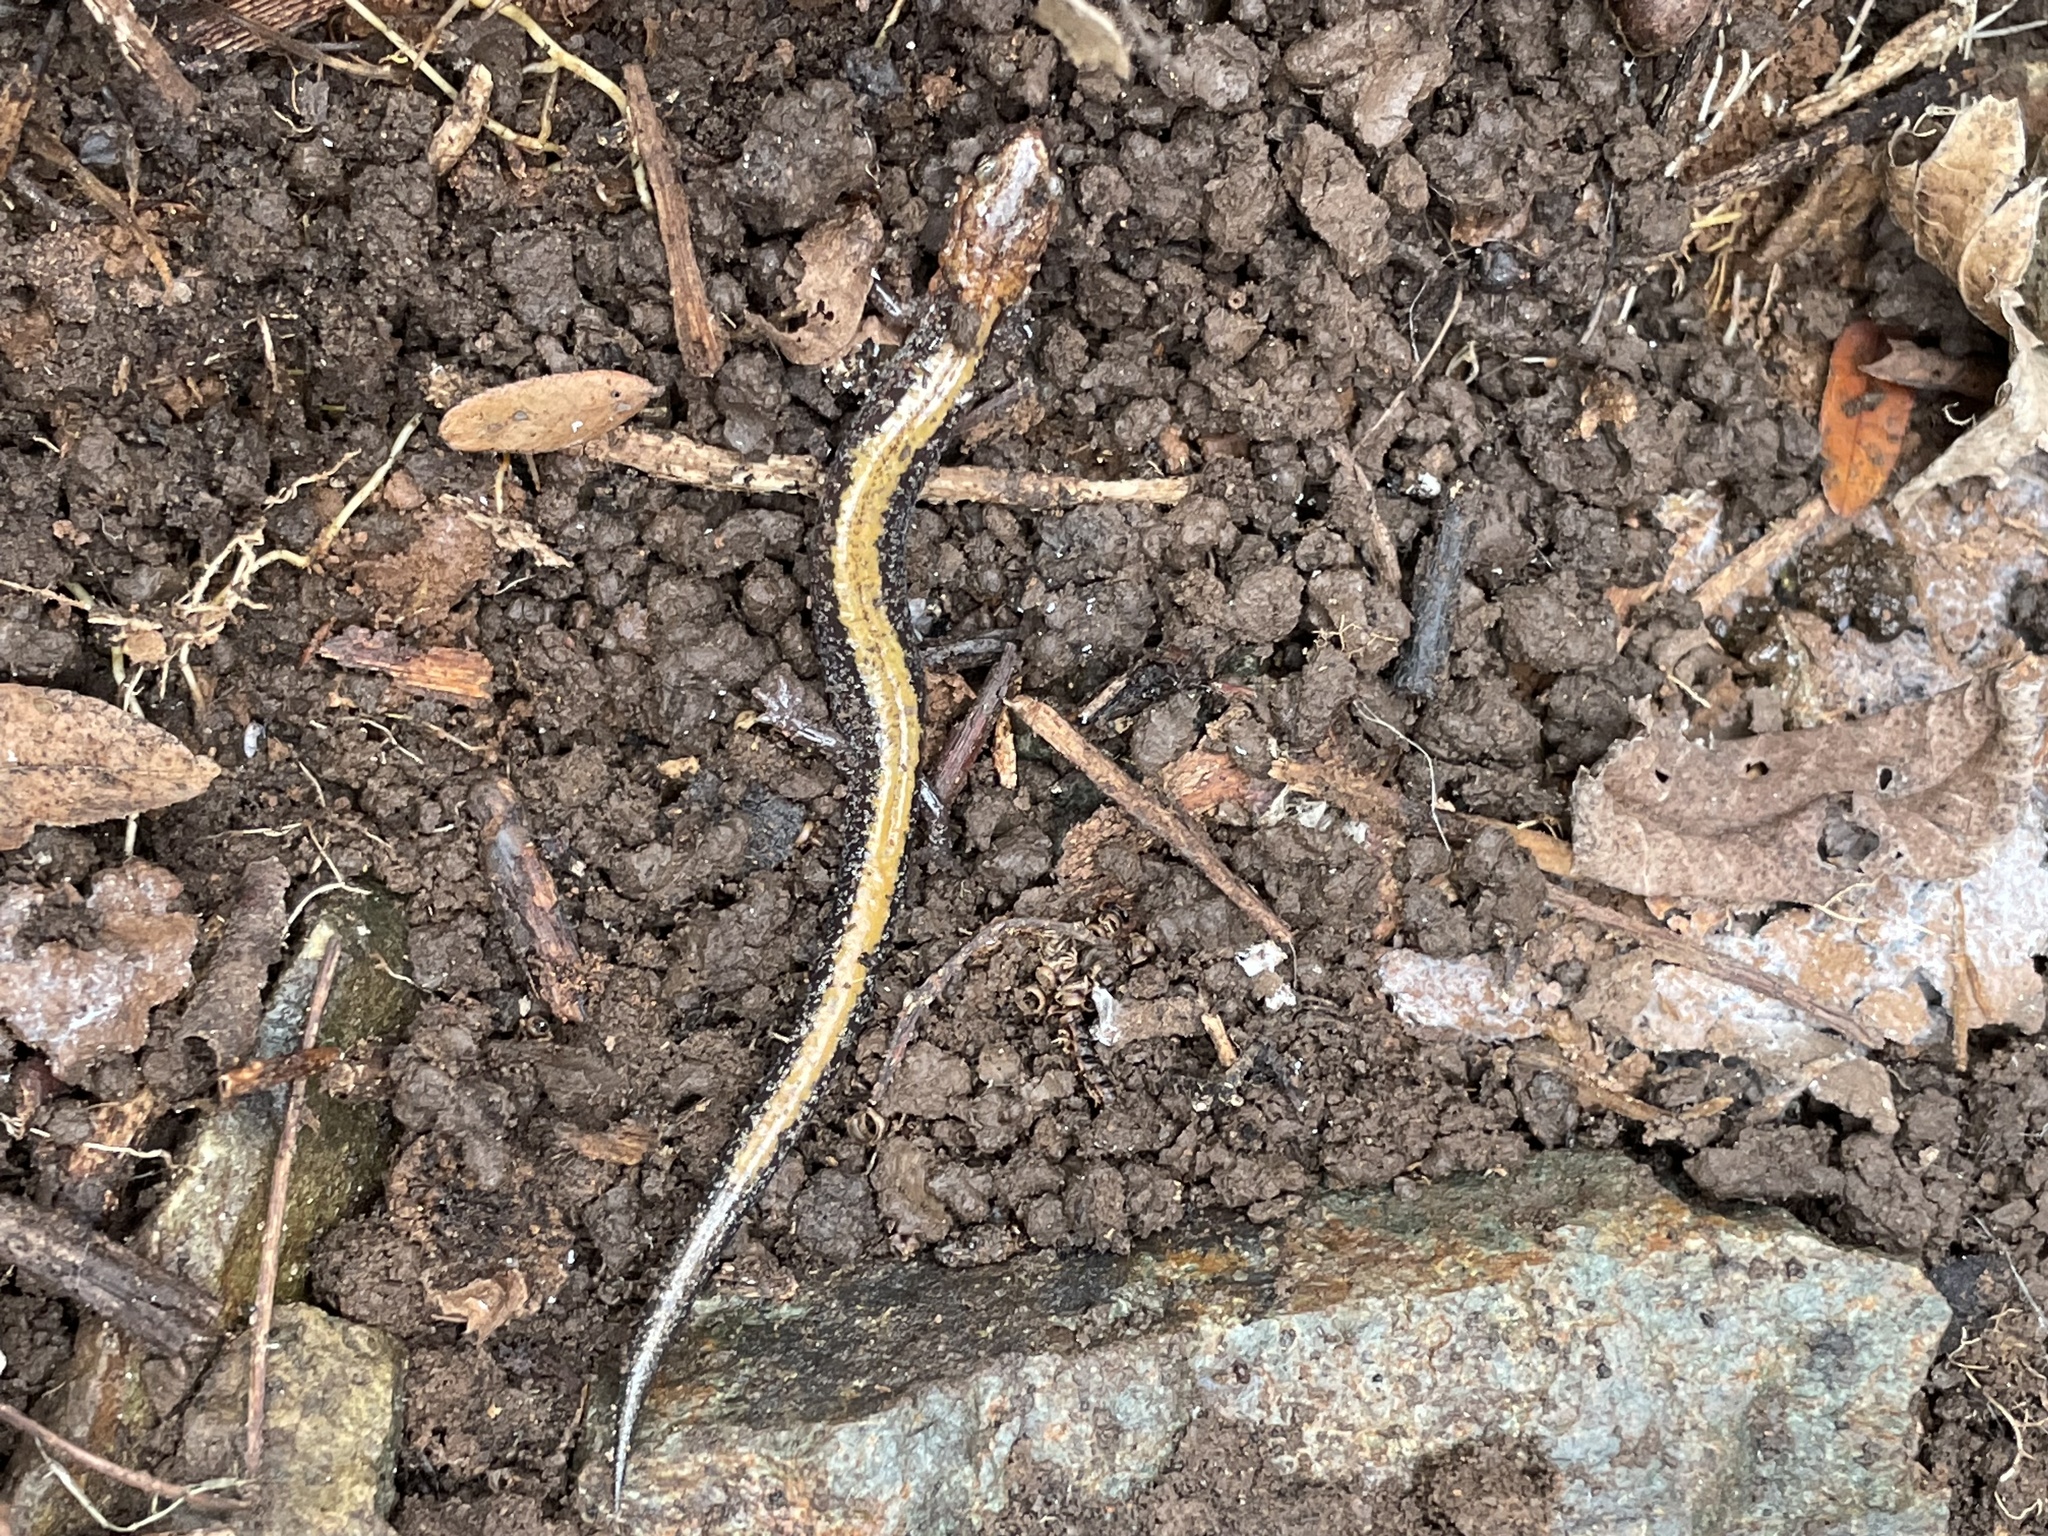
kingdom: Animalia
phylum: Chordata
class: Amphibia
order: Caudata
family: Plethodontidae
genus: Plethodon
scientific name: Plethodon cinereus
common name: Redback salamander
